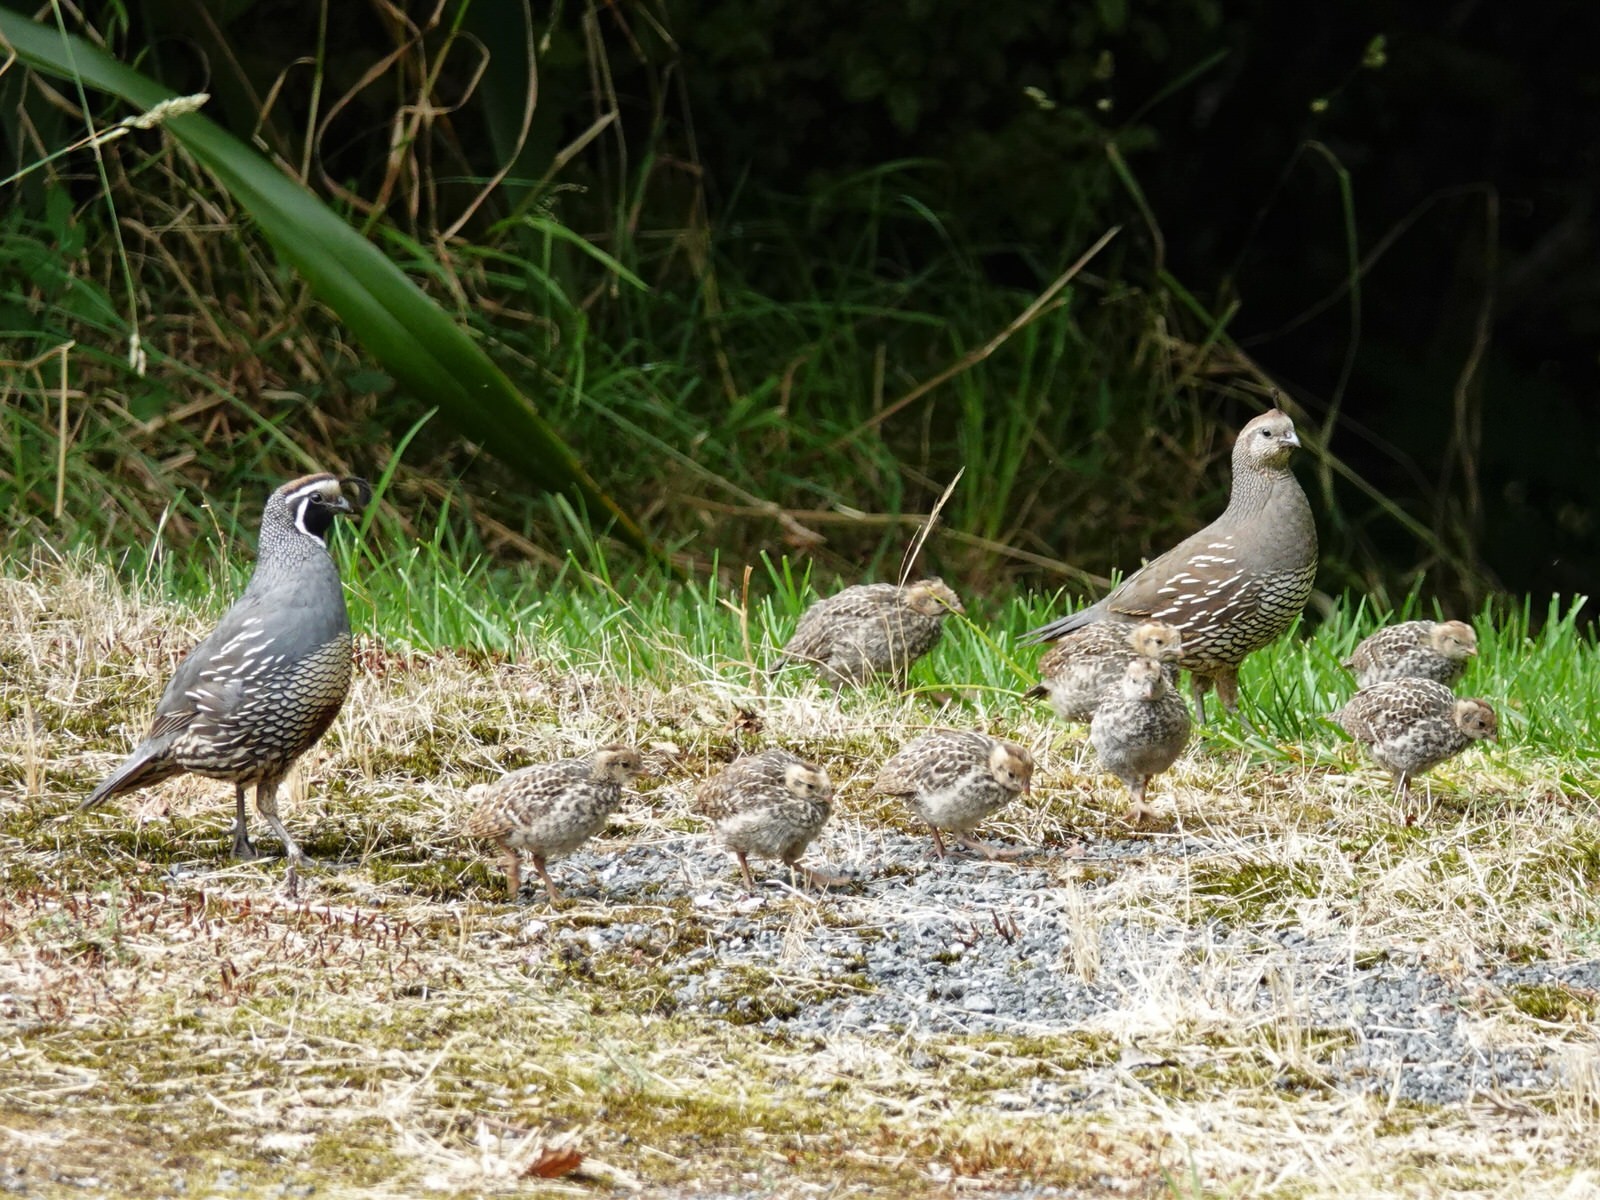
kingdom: Animalia
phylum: Chordata
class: Aves
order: Galliformes
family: Odontophoridae
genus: Callipepla
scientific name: Callipepla californica
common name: California quail
